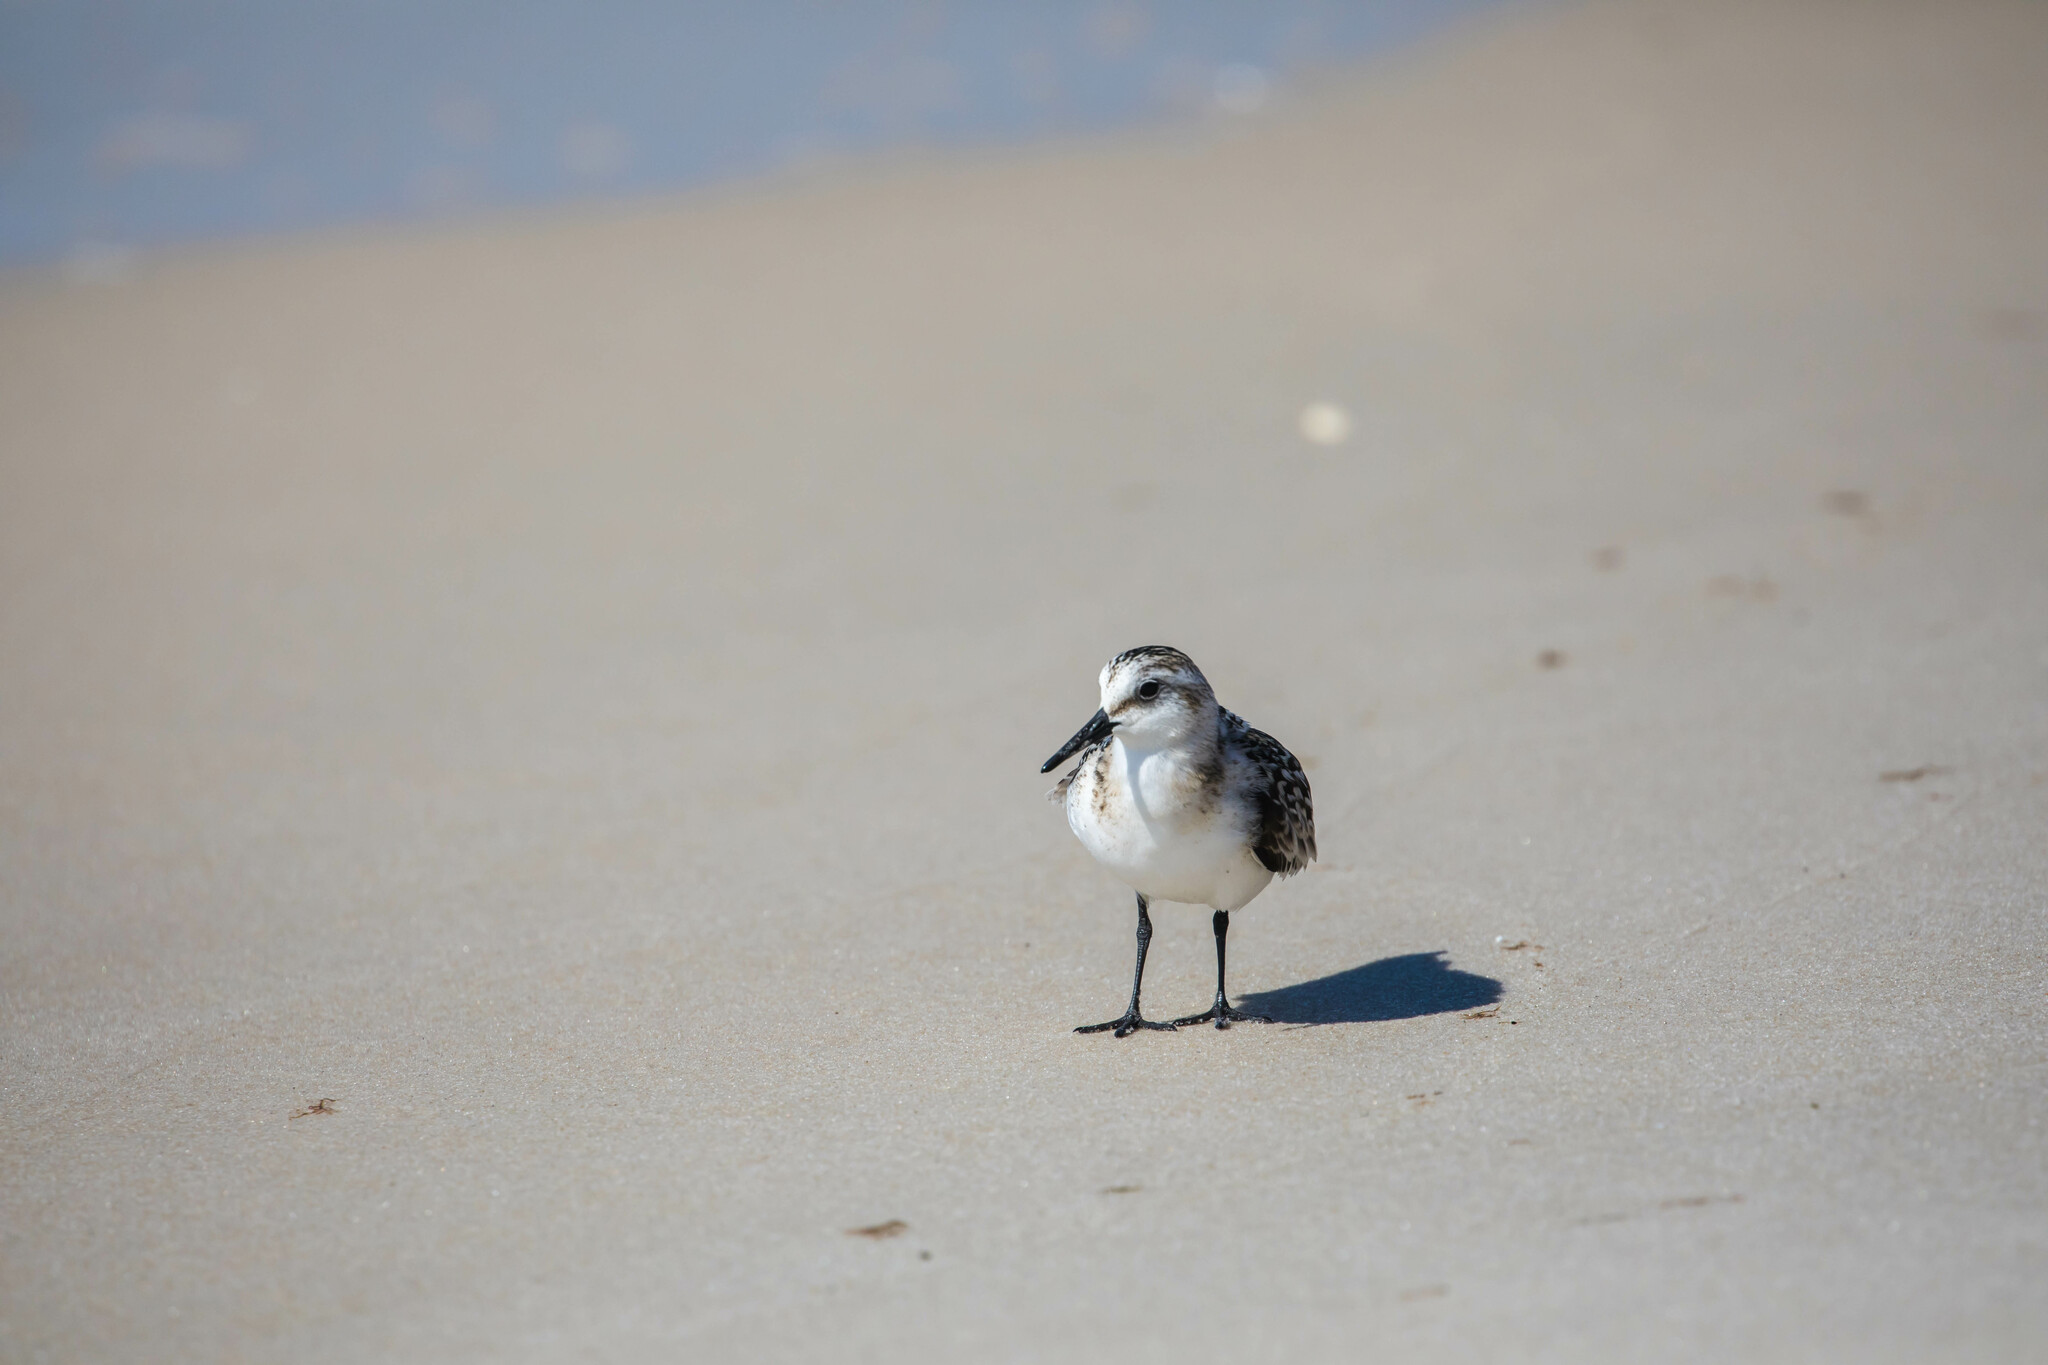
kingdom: Animalia
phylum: Chordata
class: Aves
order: Charadriiformes
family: Scolopacidae
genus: Calidris
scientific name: Calidris alba
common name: Sanderling
